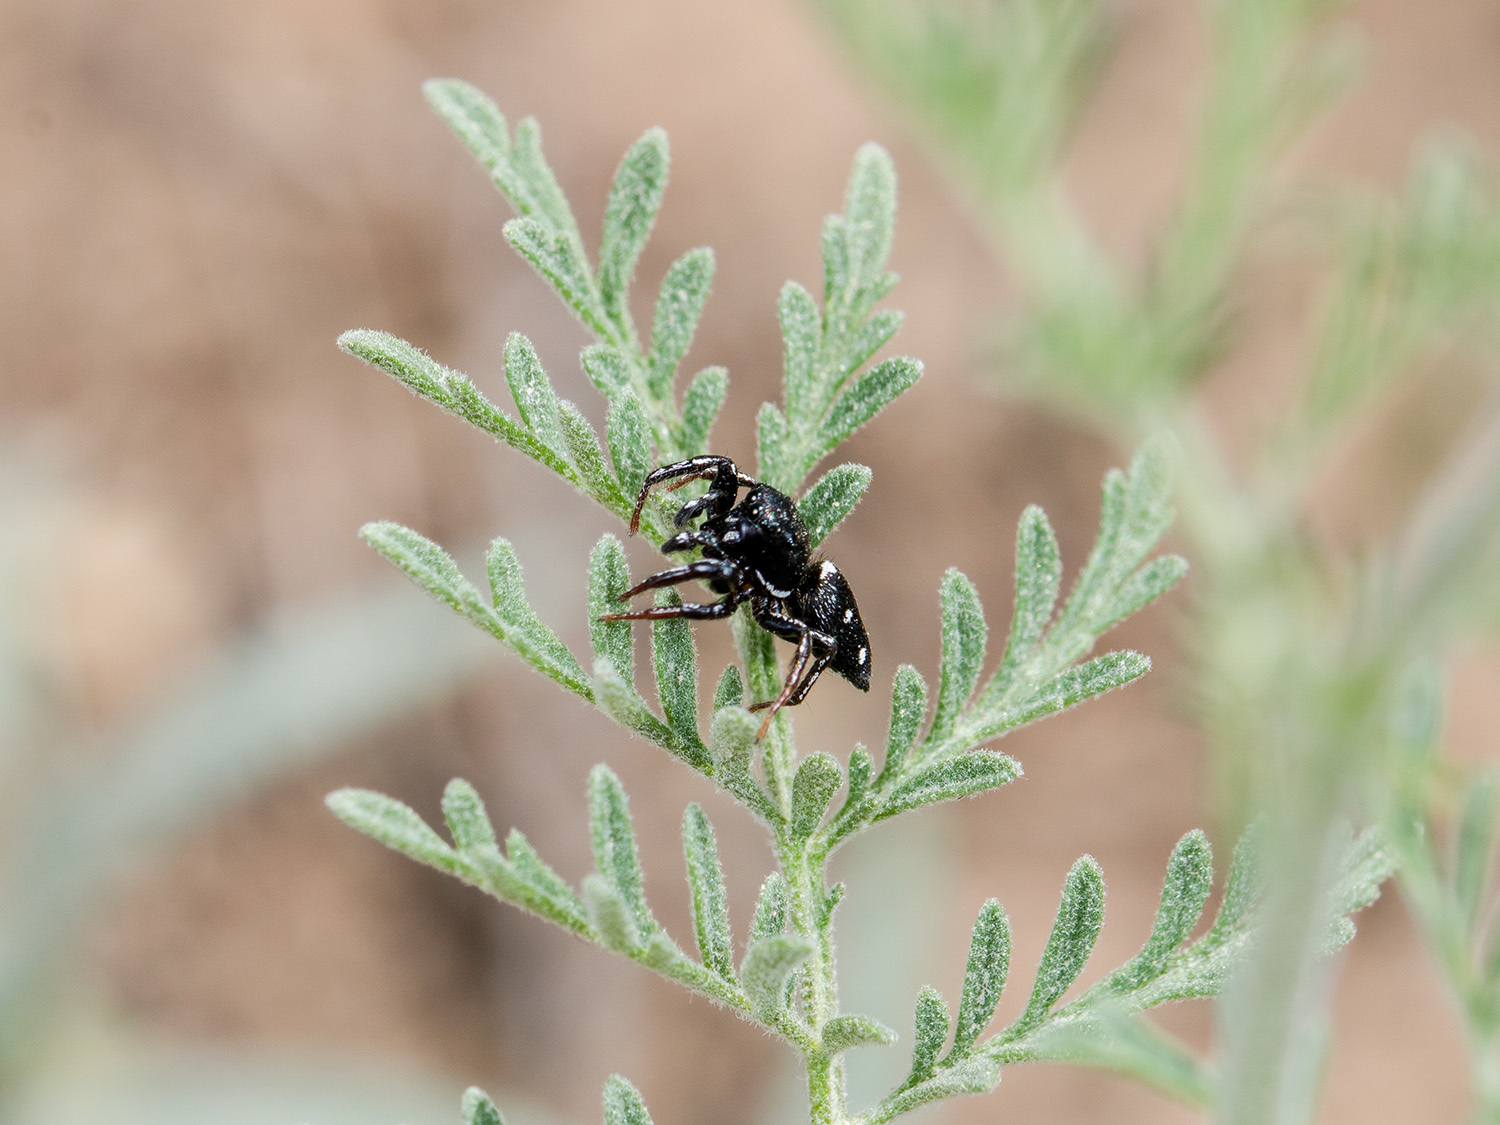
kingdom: Animalia
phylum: Arthropoda
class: Arachnida
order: Araneae
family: Salticidae
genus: Heliophanus
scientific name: Heliophanus chovdensis
